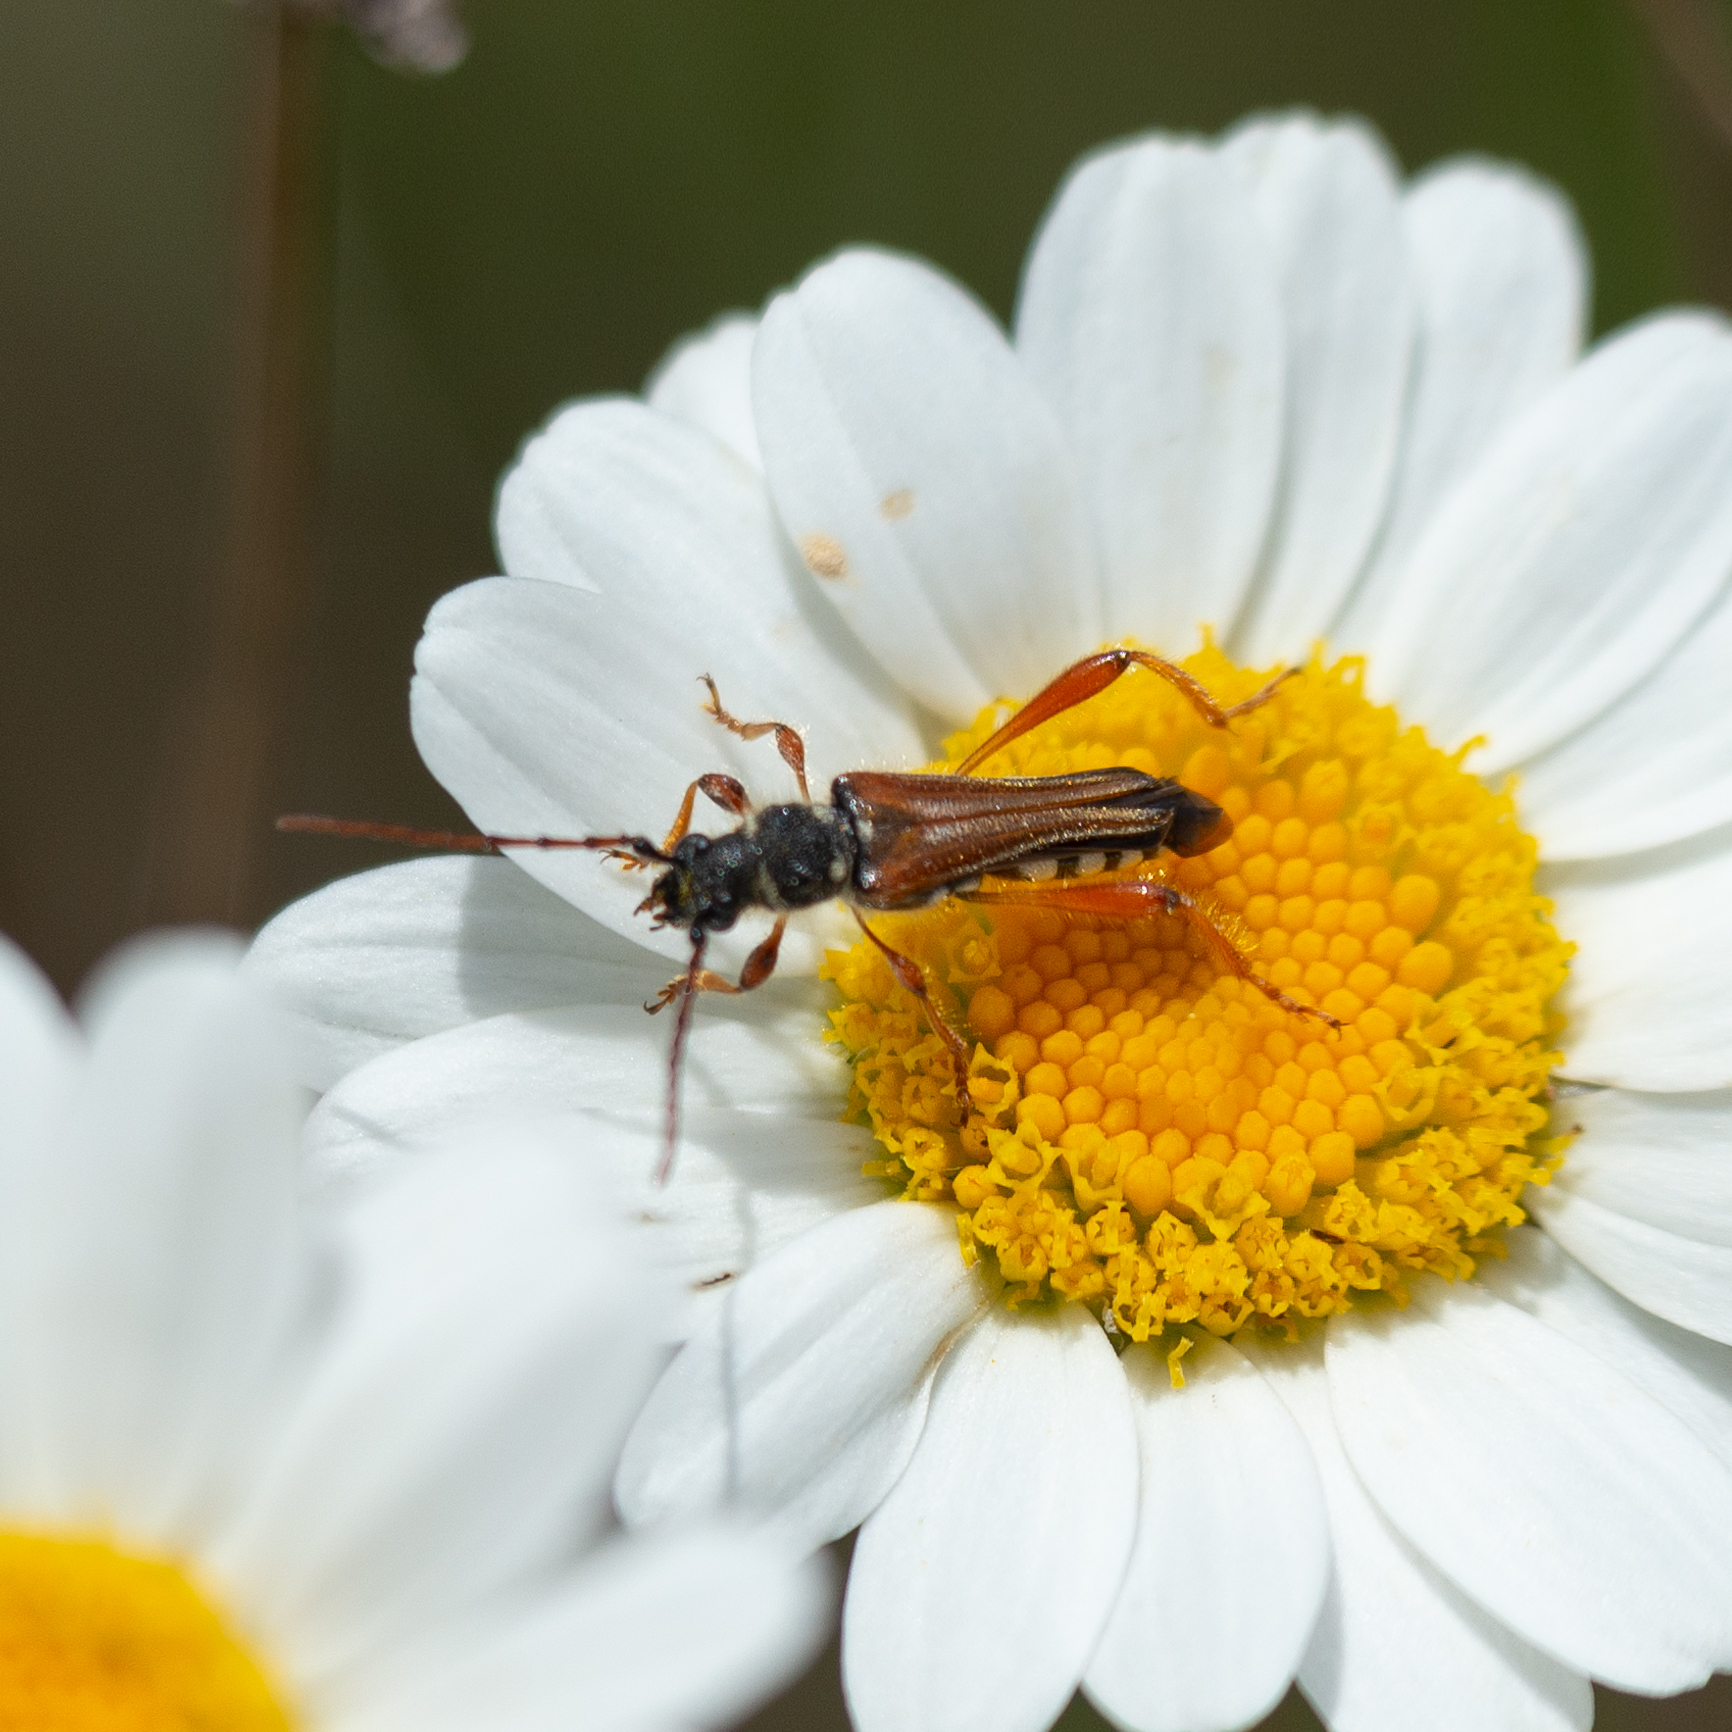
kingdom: Animalia
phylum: Arthropoda
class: Insecta
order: Coleoptera
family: Cerambycidae
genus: Stenopterus
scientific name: Stenopterus rufus
